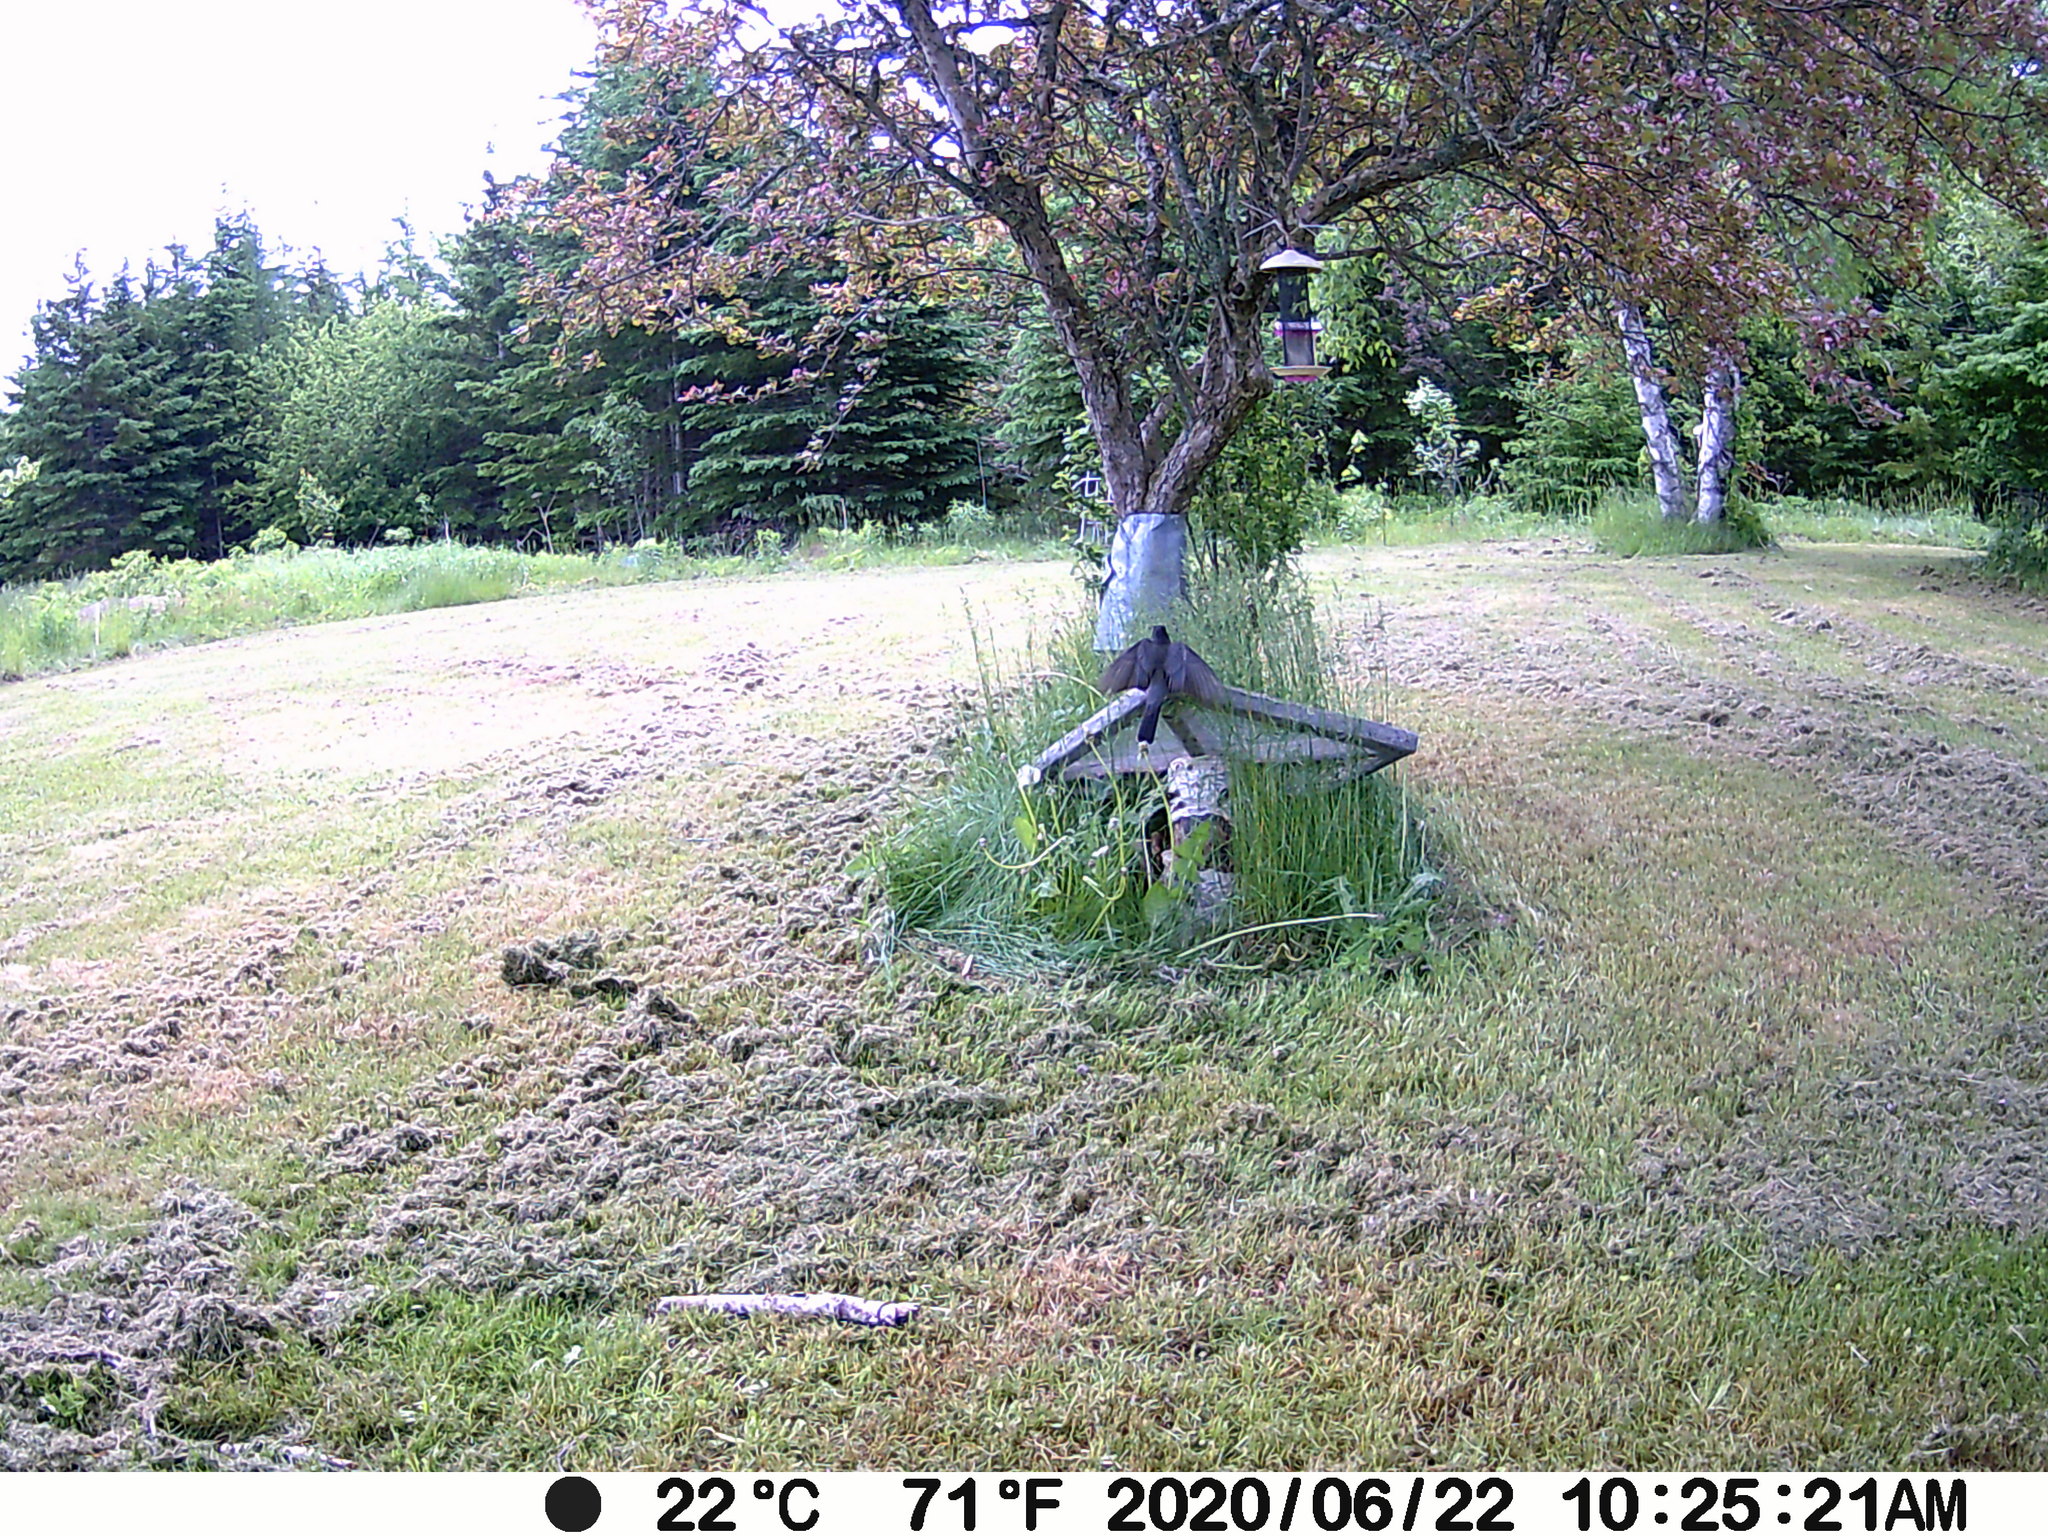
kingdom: Animalia
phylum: Chordata
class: Aves
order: Passeriformes
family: Turdidae
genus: Turdus
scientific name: Turdus migratorius
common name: American robin
